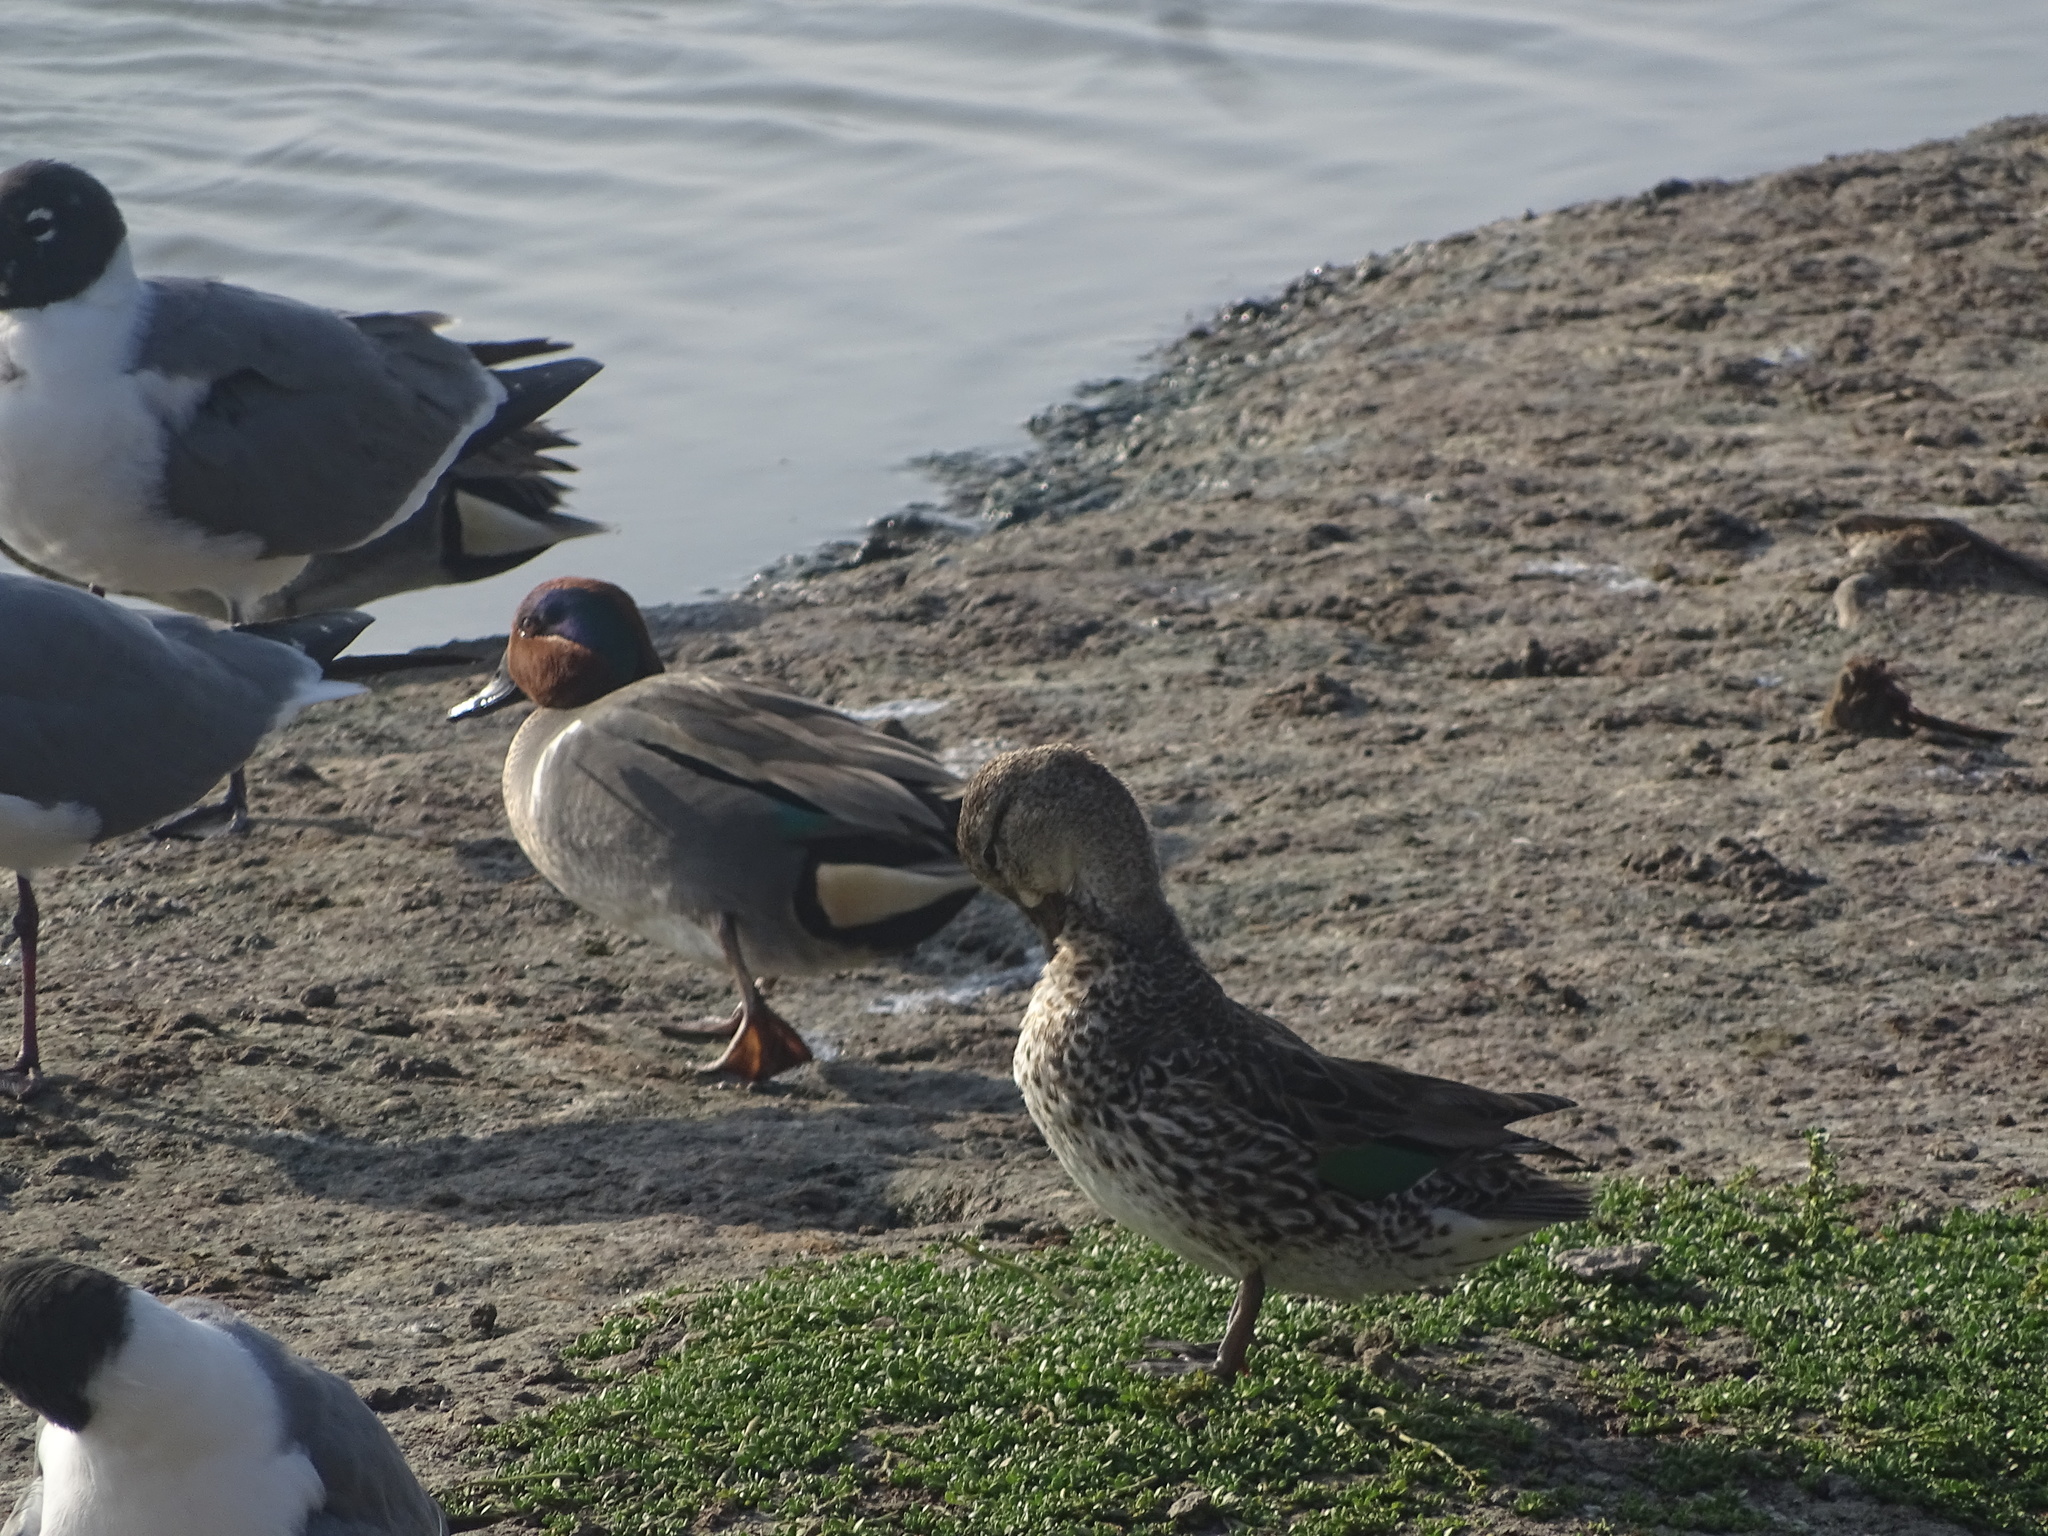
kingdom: Animalia
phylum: Chordata
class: Aves
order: Anseriformes
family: Anatidae
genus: Anas
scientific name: Anas crecca
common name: Eurasian teal
